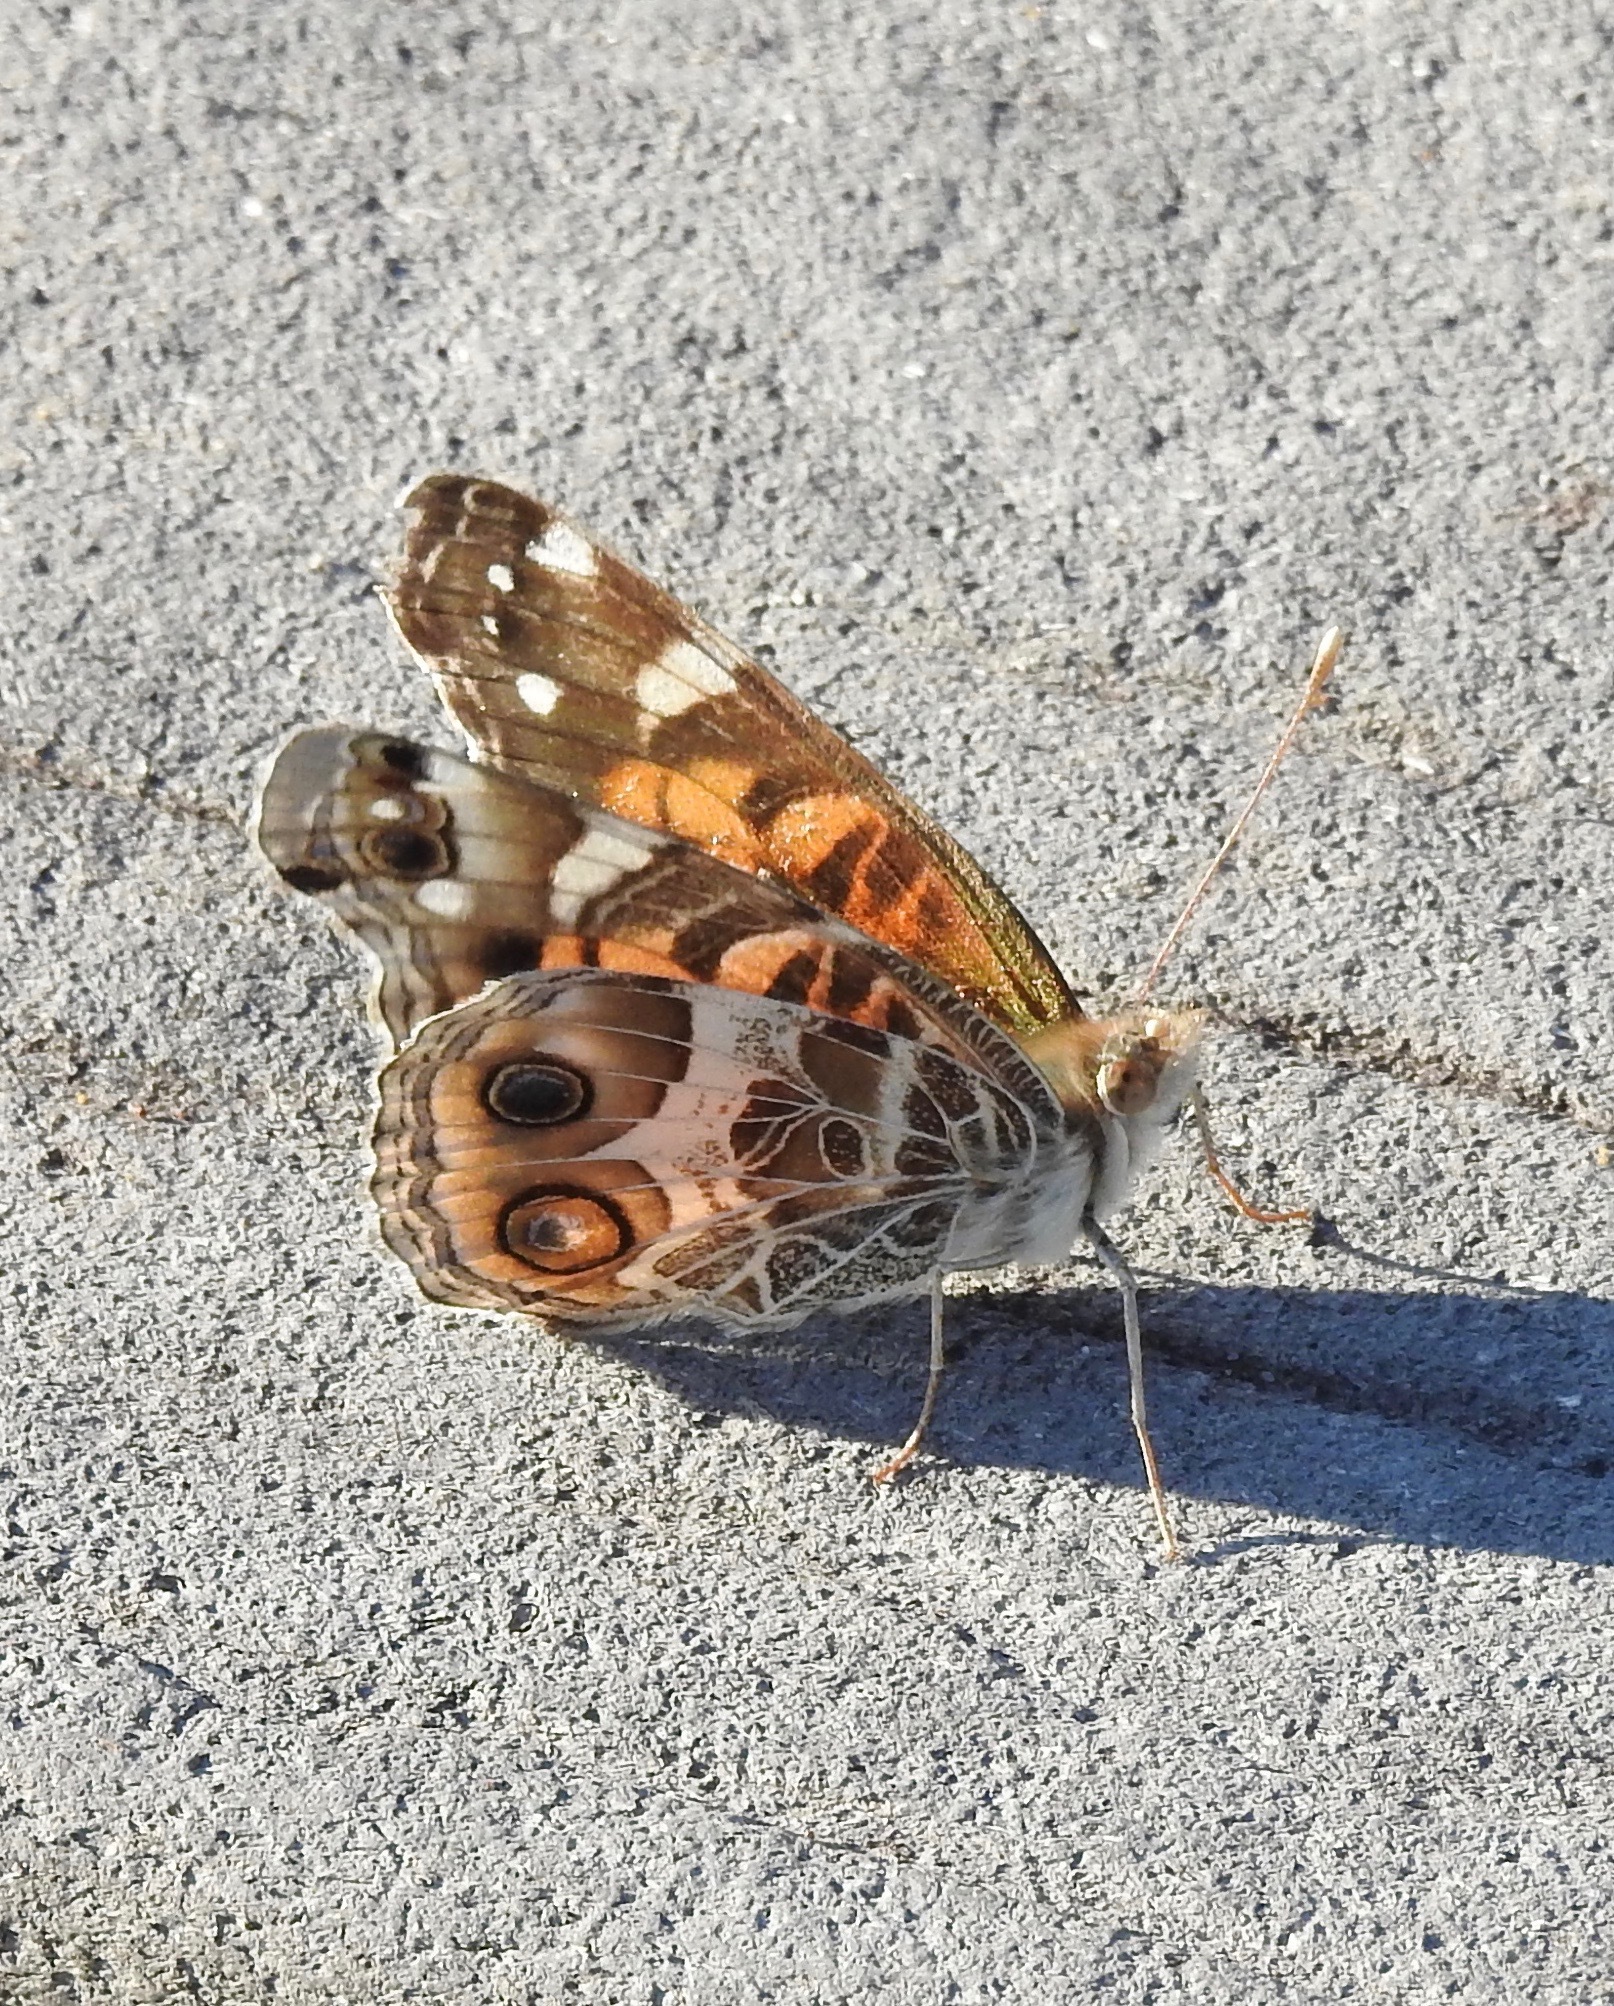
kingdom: Animalia
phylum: Arthropoda
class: Insecta
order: Lepidoptera
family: Nymphalidae
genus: Vanessa
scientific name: Vanessa virginiensis
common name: American lady
